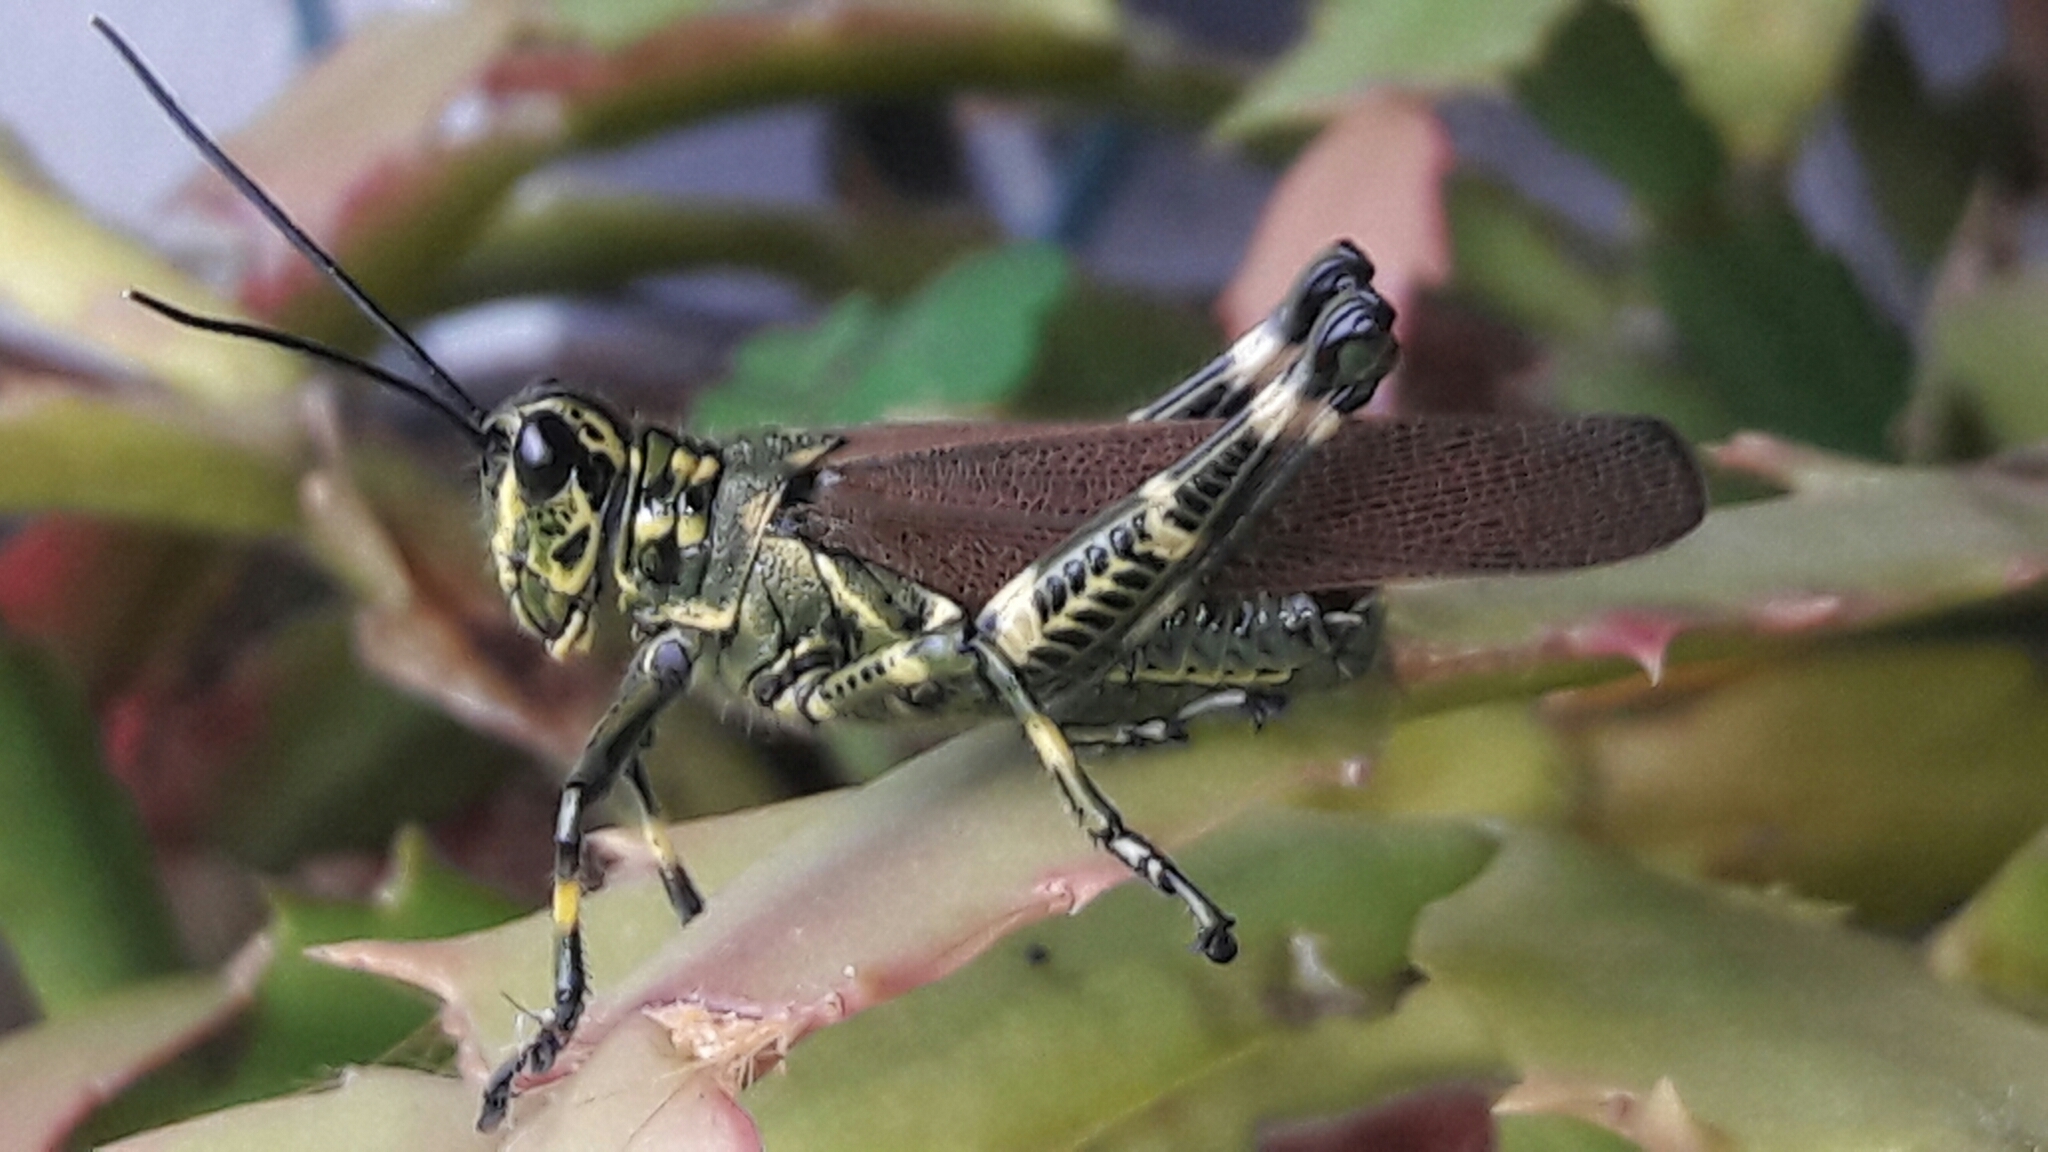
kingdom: Animalia
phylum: Arthropoda
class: Insecta
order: Orthoptera
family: Romaleidae
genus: Chromacris
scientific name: Chromacris speciosa
